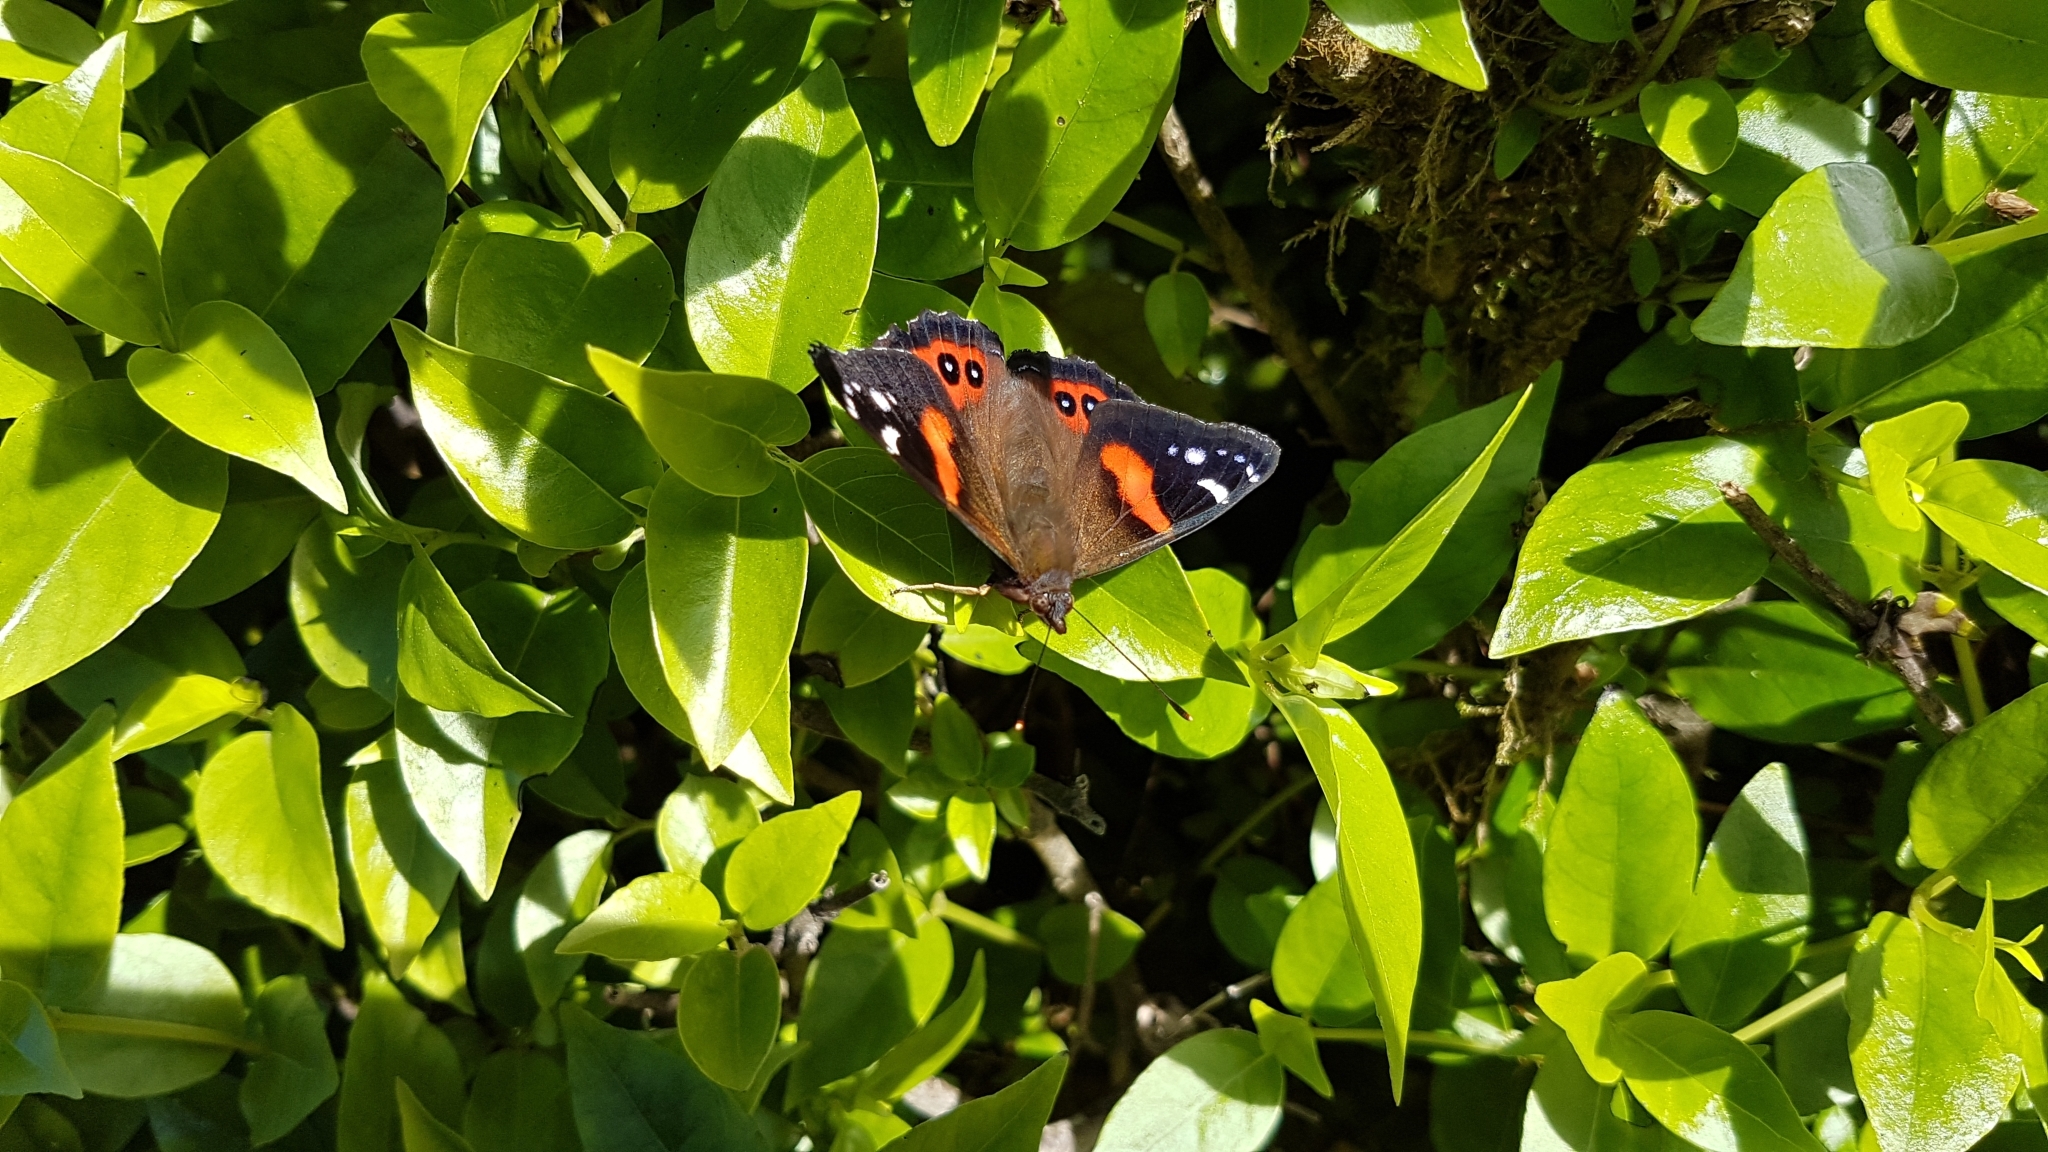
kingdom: Animalia
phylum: Arthropoda
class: Insecta
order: Lepidoptera
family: Nymphalidae
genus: Vanessa
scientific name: Vanessa gonerilla
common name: New zealand red admiral
